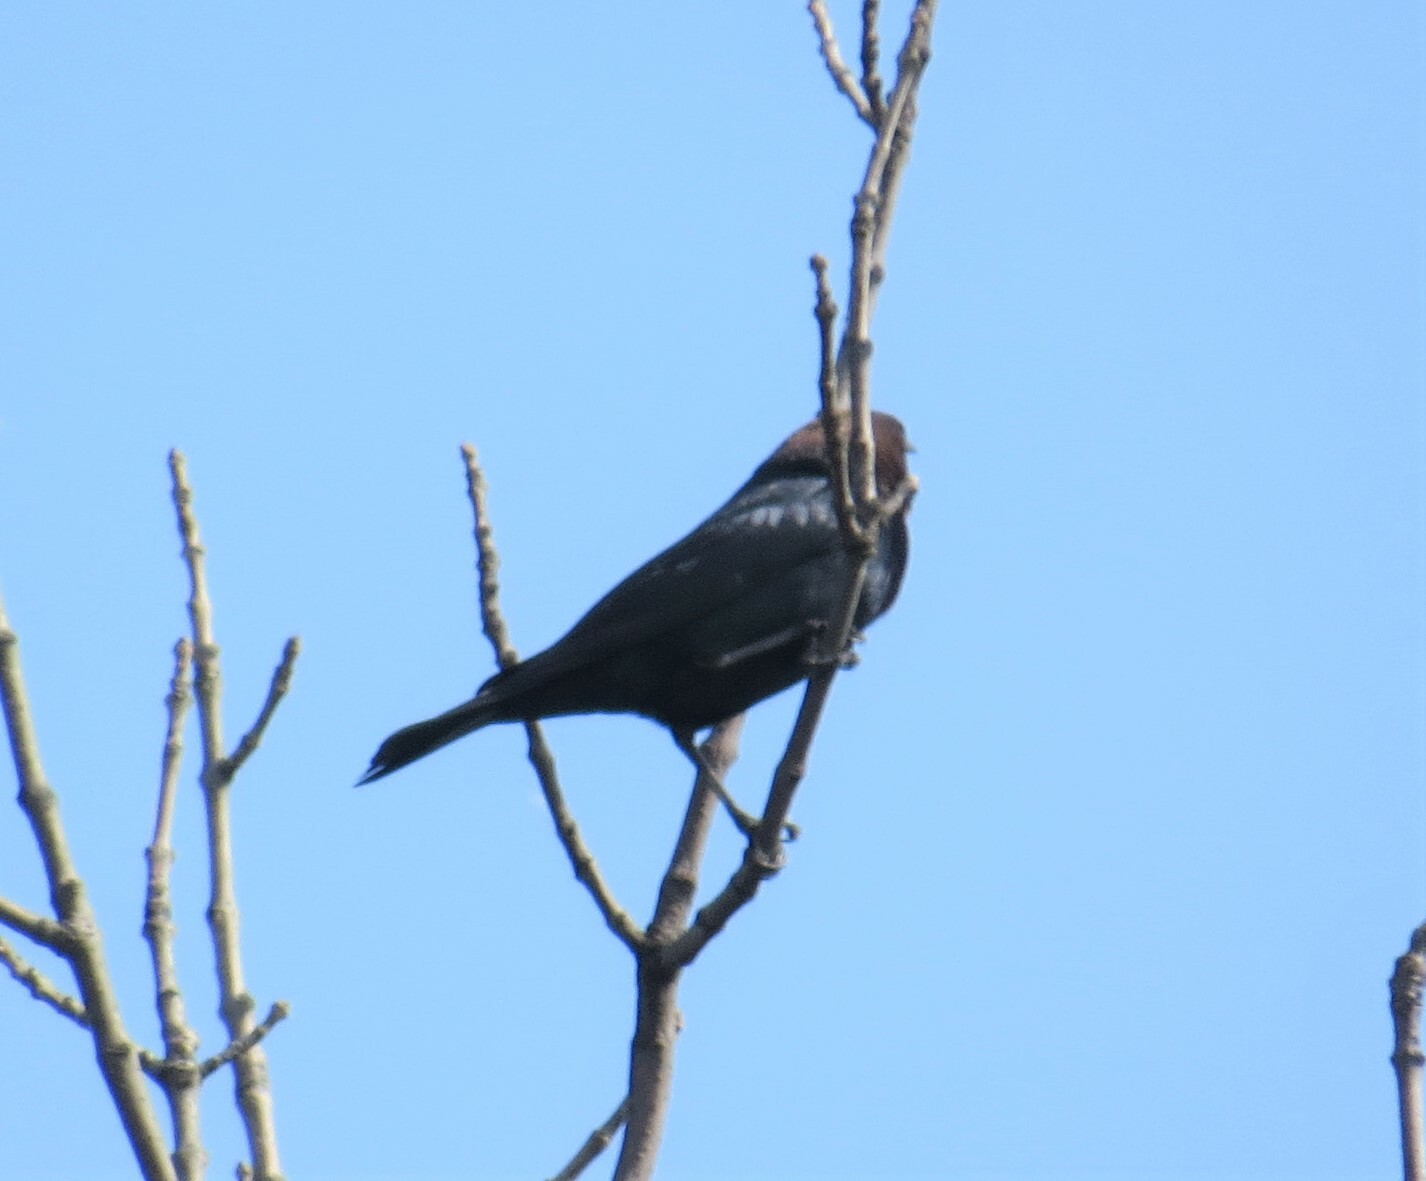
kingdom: Animalia
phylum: Chordata
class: Aves
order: Passeriformes
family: Icteridae
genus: Molothrus
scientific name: Molothrus ater
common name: Brown-headed cowbird
